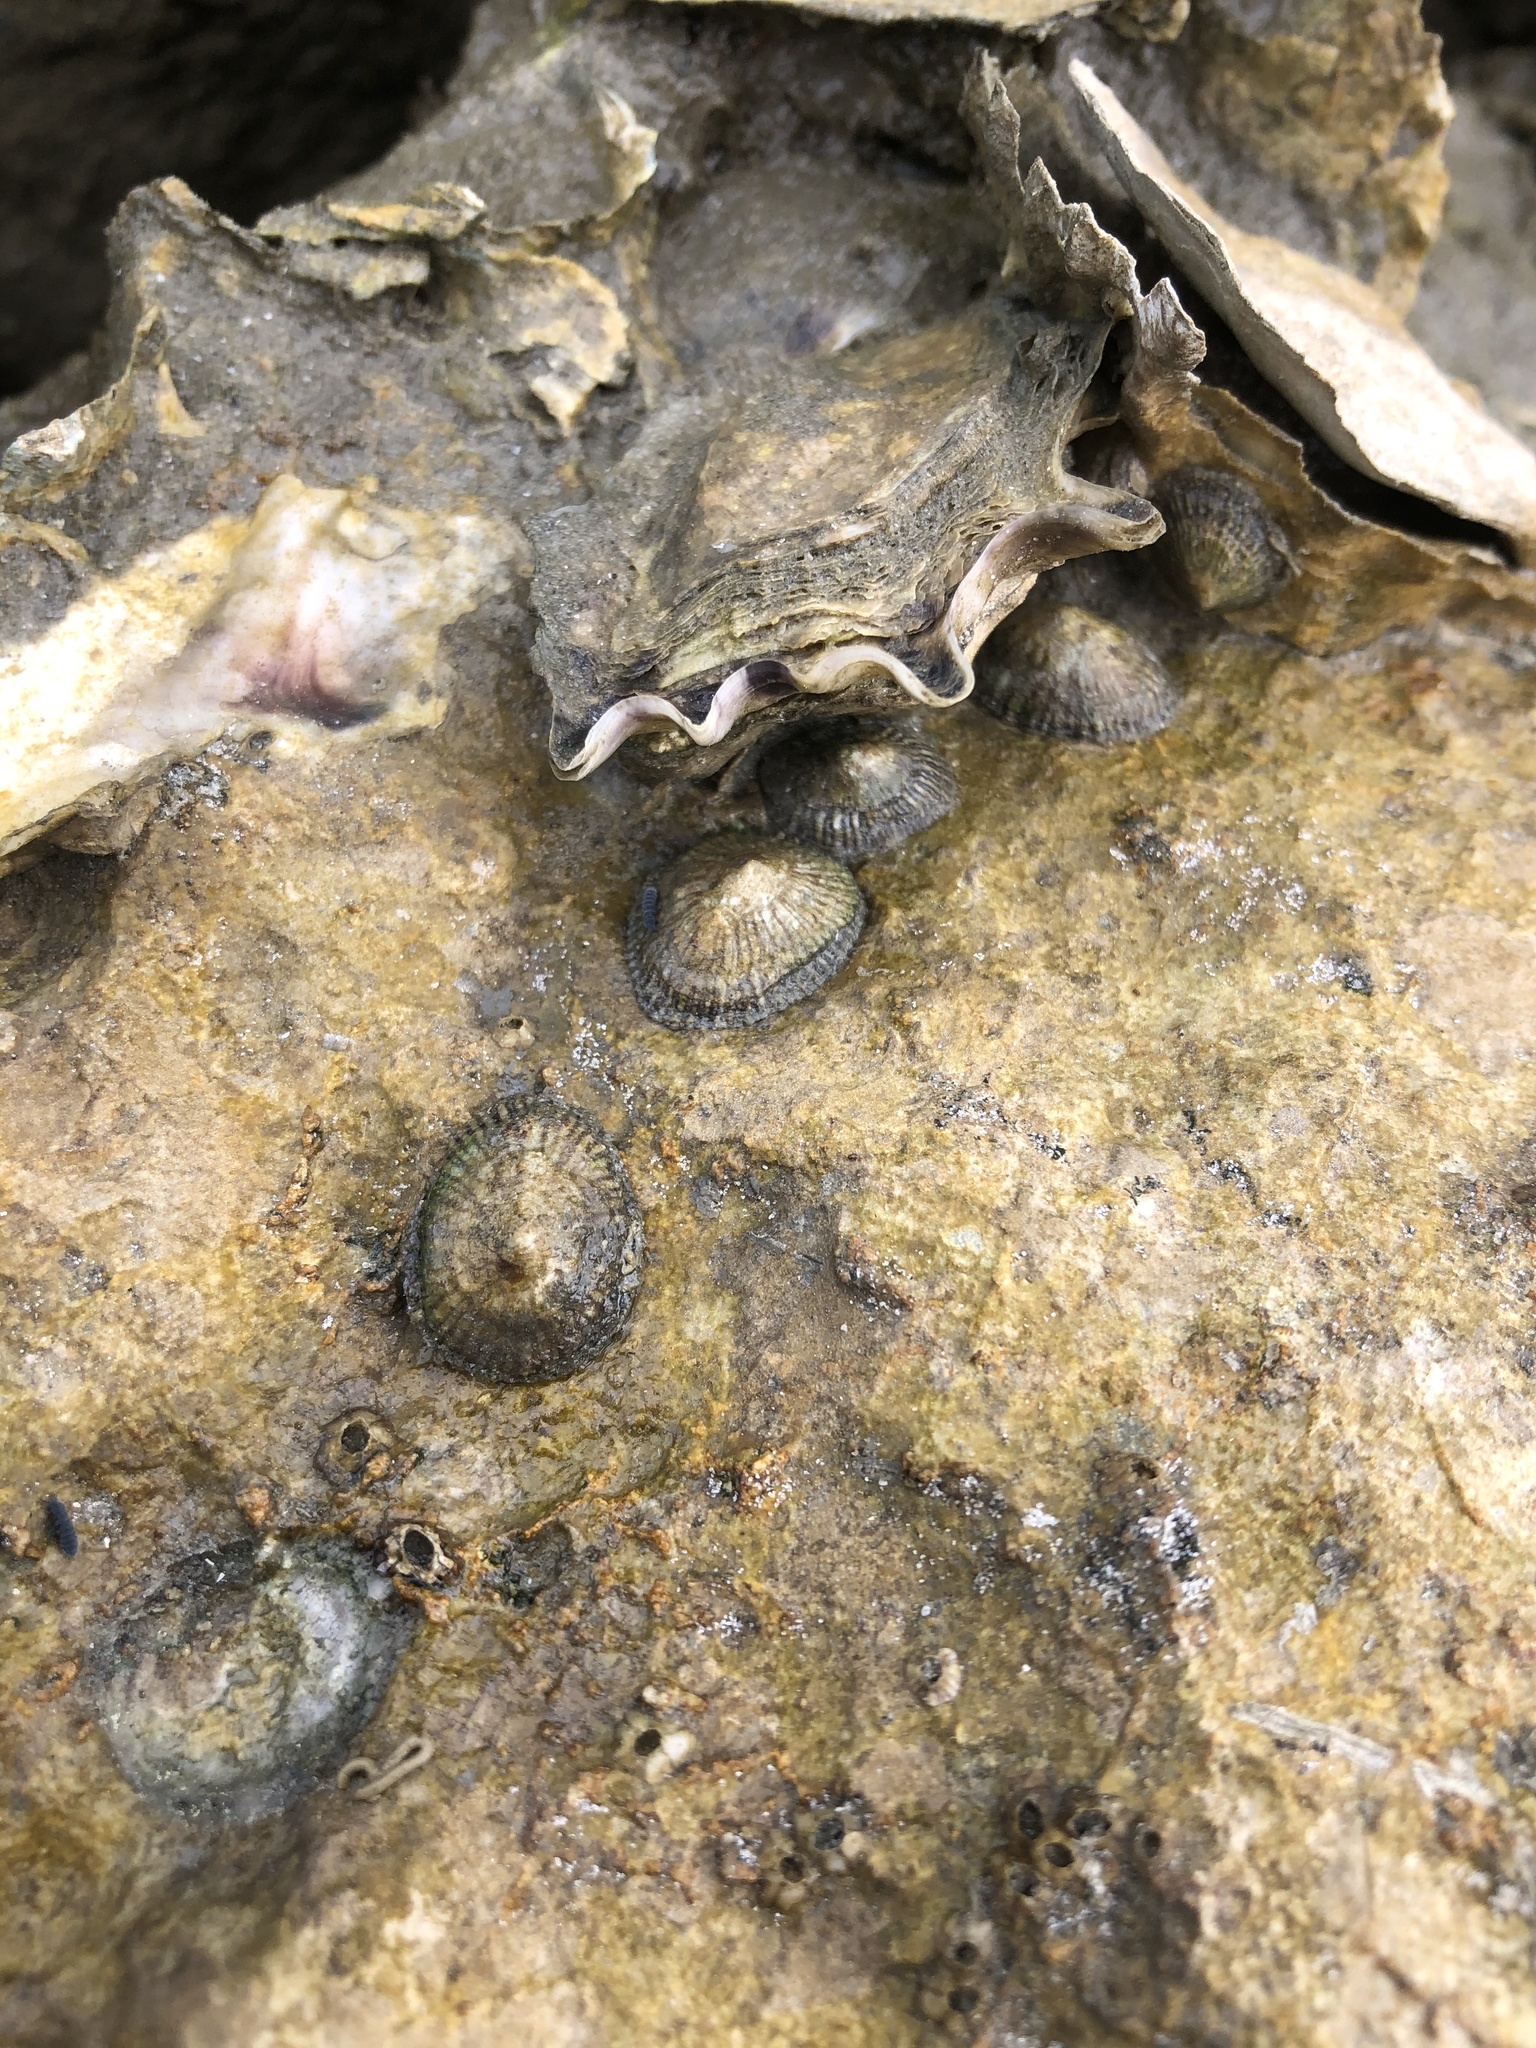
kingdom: Animalia
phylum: Mollusca
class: Gastropoda
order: Siphonariida
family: Siphonariidae
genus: Siphonaria
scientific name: Siphonaria naufragum
